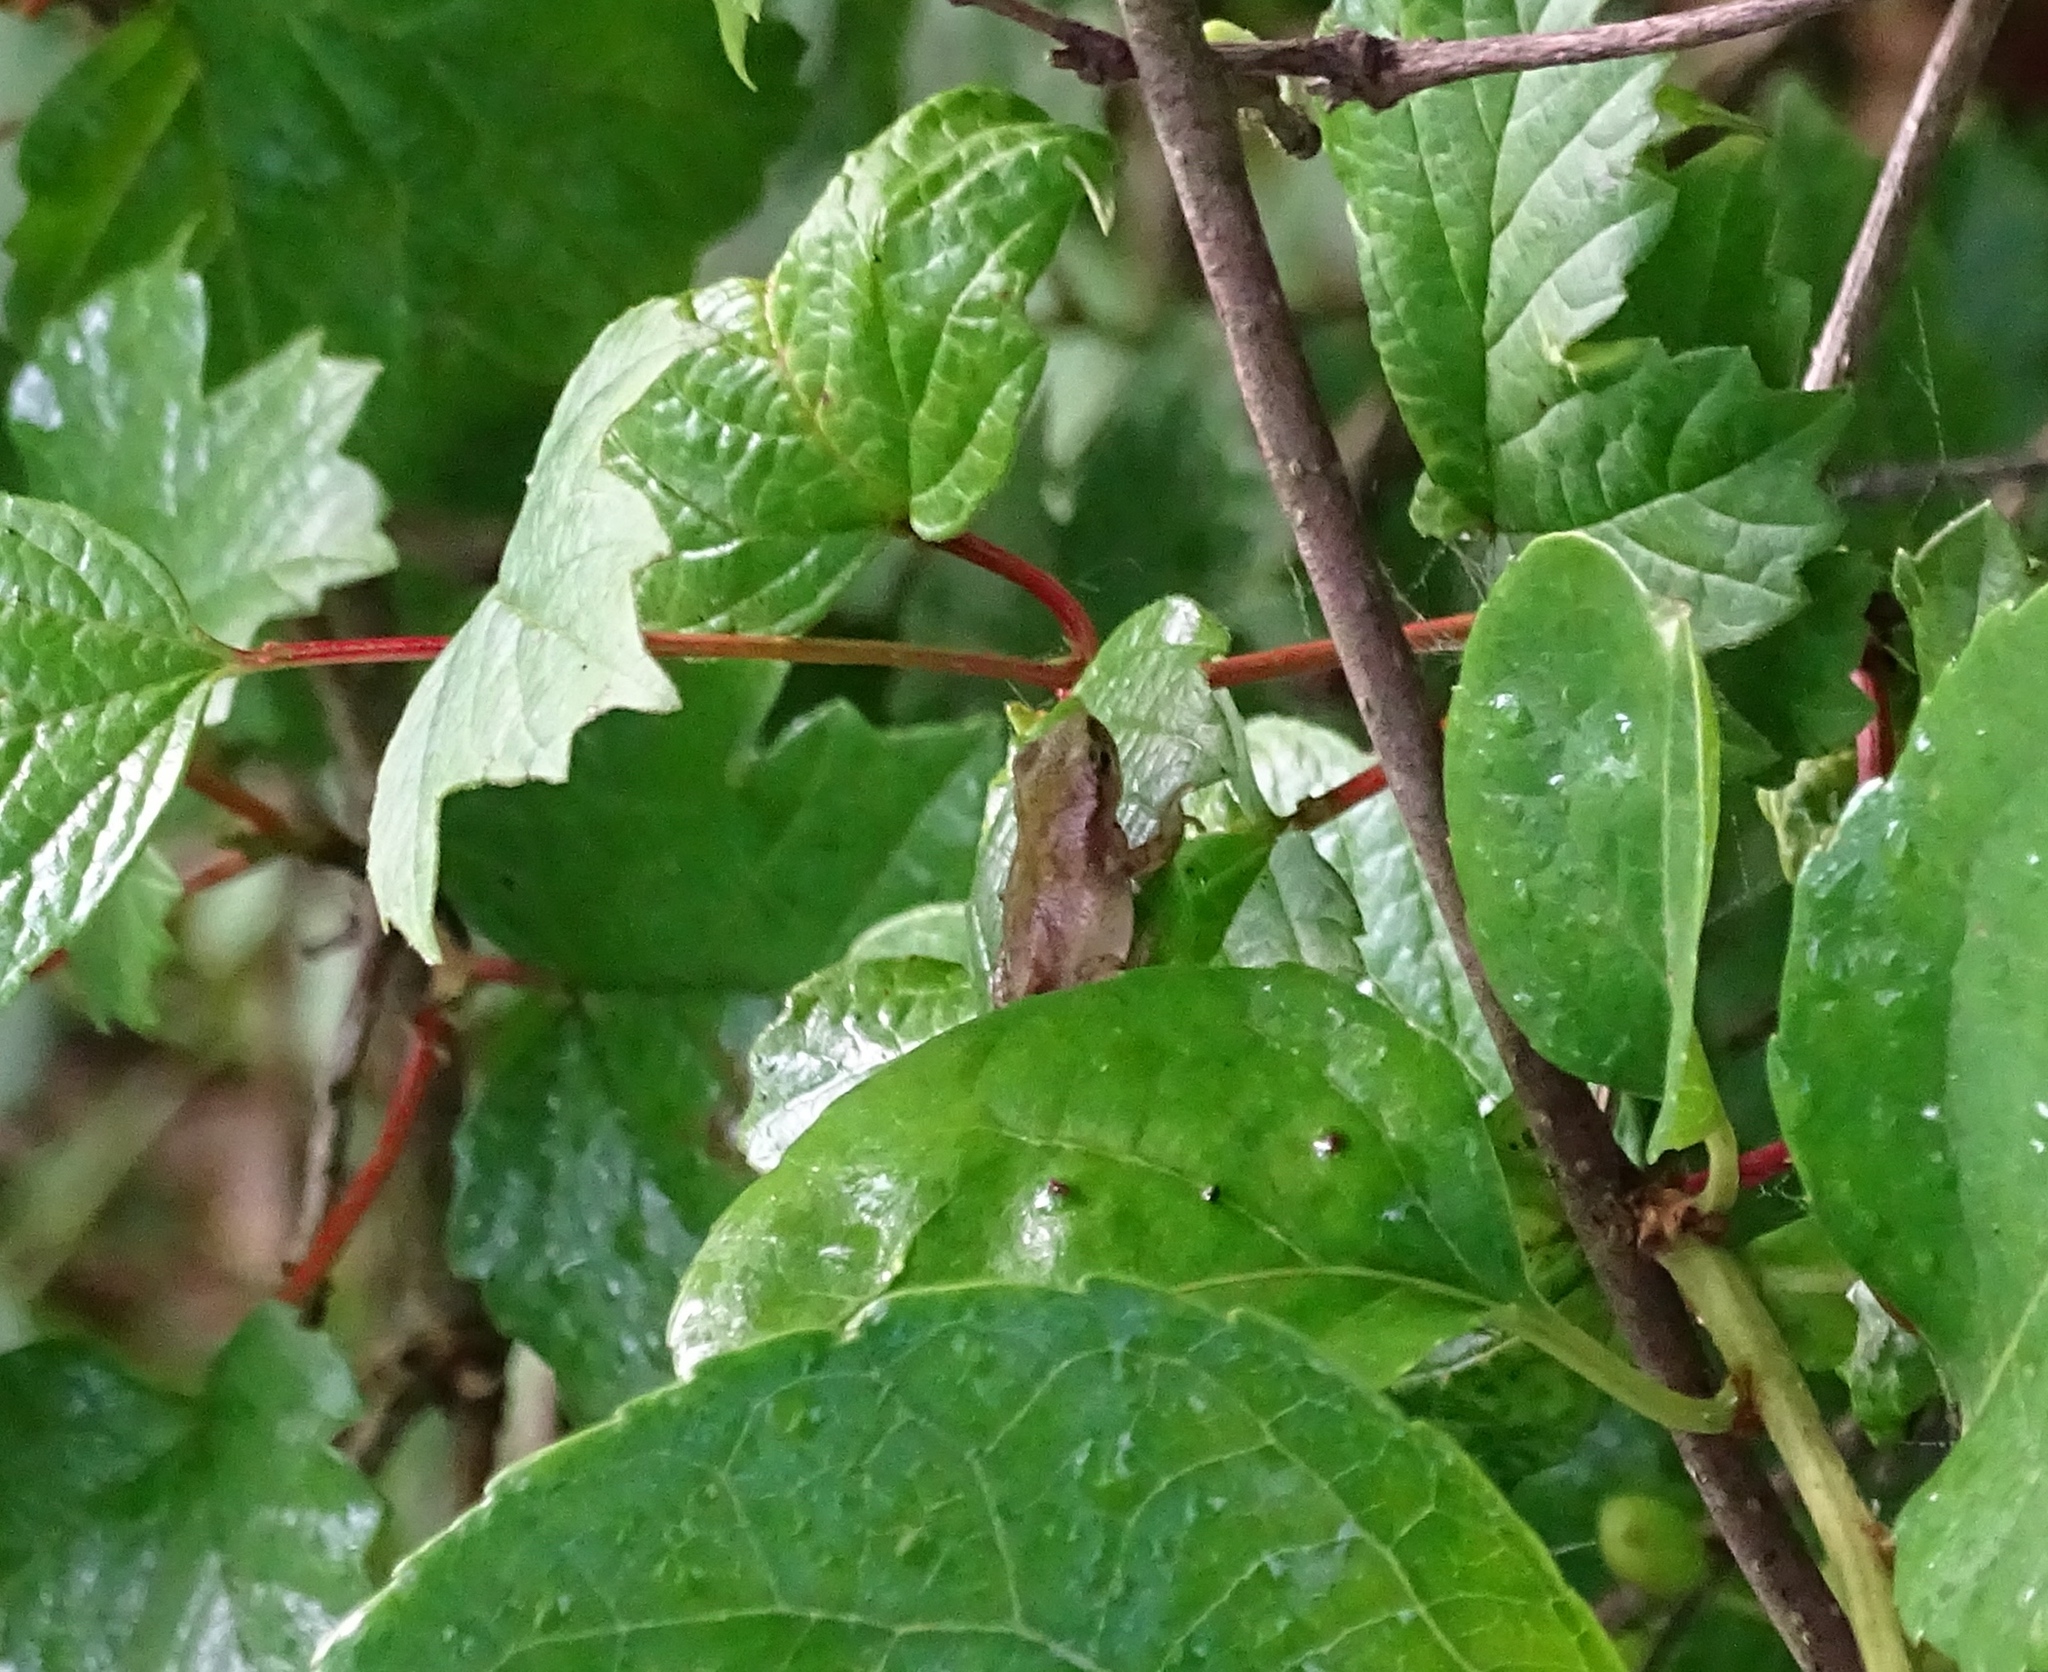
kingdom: Animalia
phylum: Chordata
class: Amphibia
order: Anura
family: Hylidae
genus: Pseudacris
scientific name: Pseudacris crucifer
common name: Spring peeper
